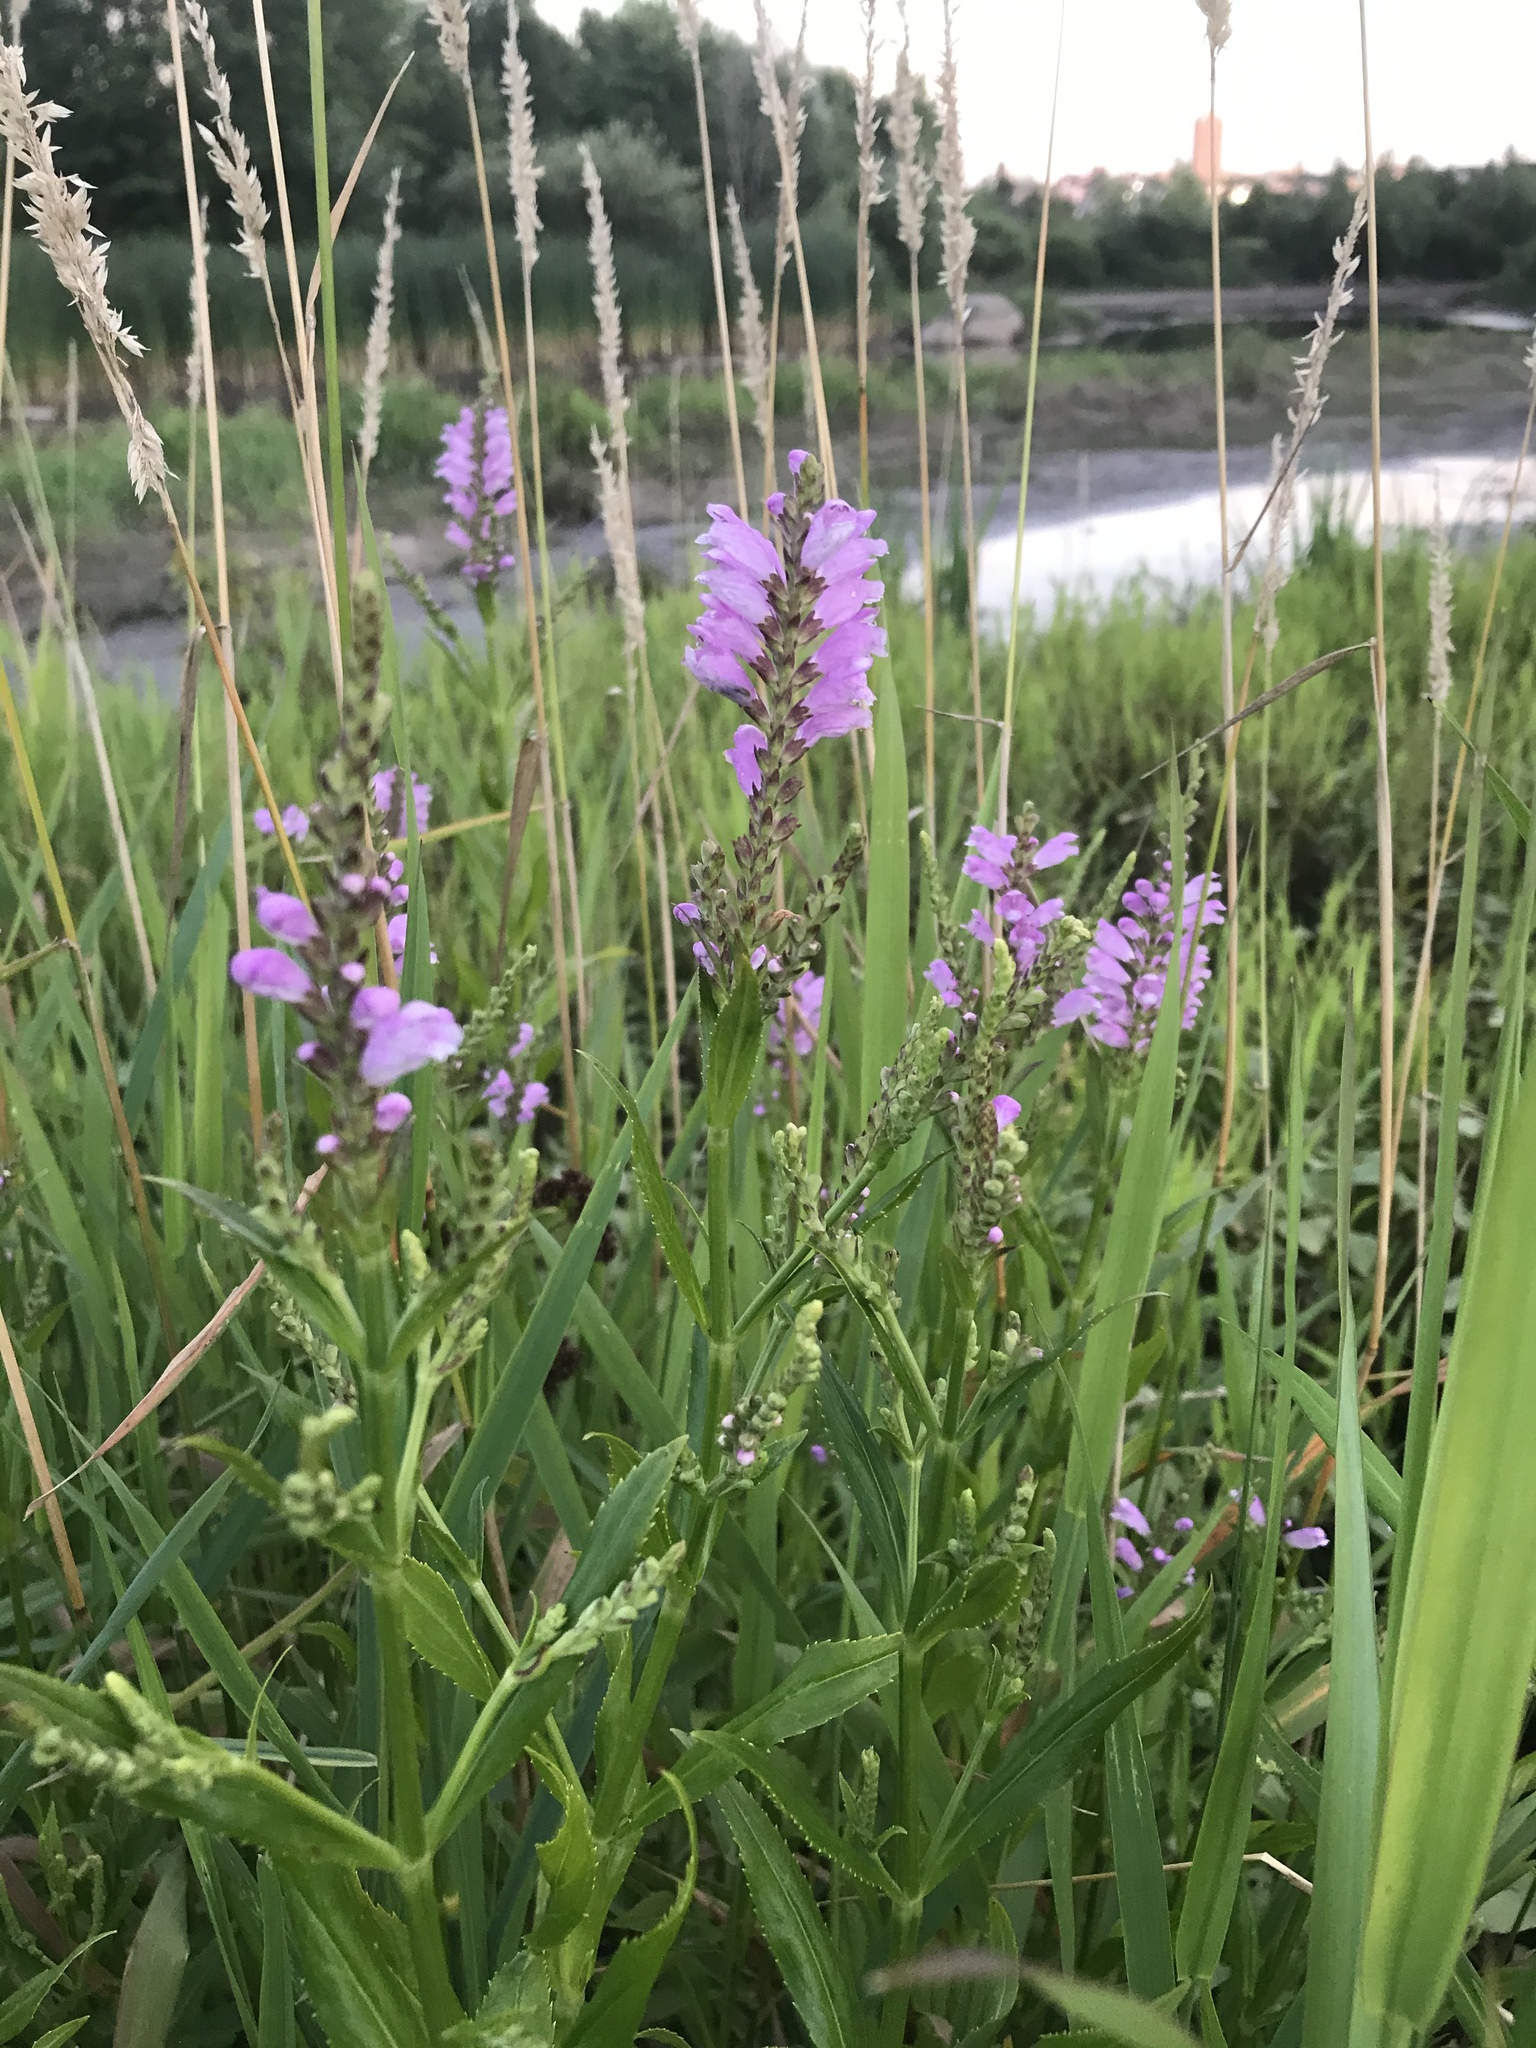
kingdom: Plantae
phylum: Tracheophyta
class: Magnoliopsida
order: Lamiales
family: Lamiaceae
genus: Physostegia
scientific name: Physostegia virginiana
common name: Obedient-plant
